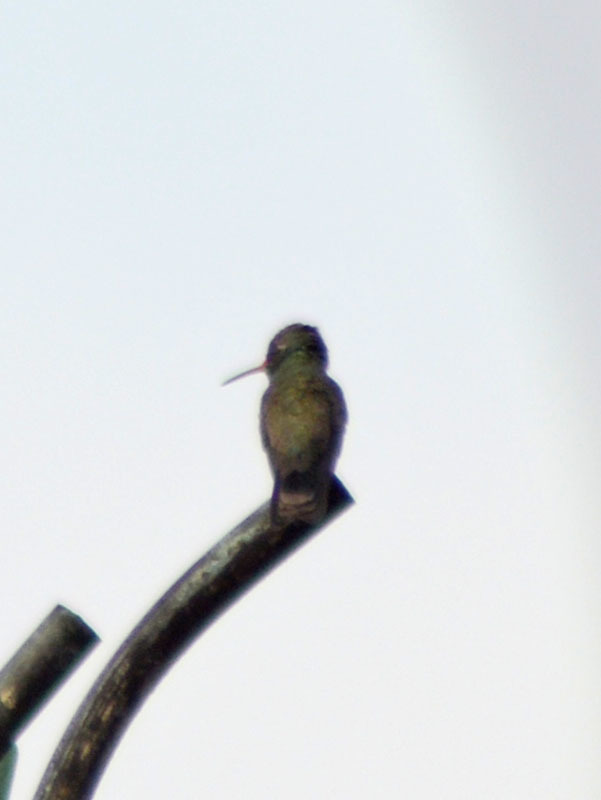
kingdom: Animalia
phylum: Chordata
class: Aves
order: Apodiformes
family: Trochilidae
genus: Cynanthus
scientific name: Cynanthus latirostris
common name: Broad-billed hummingbird
